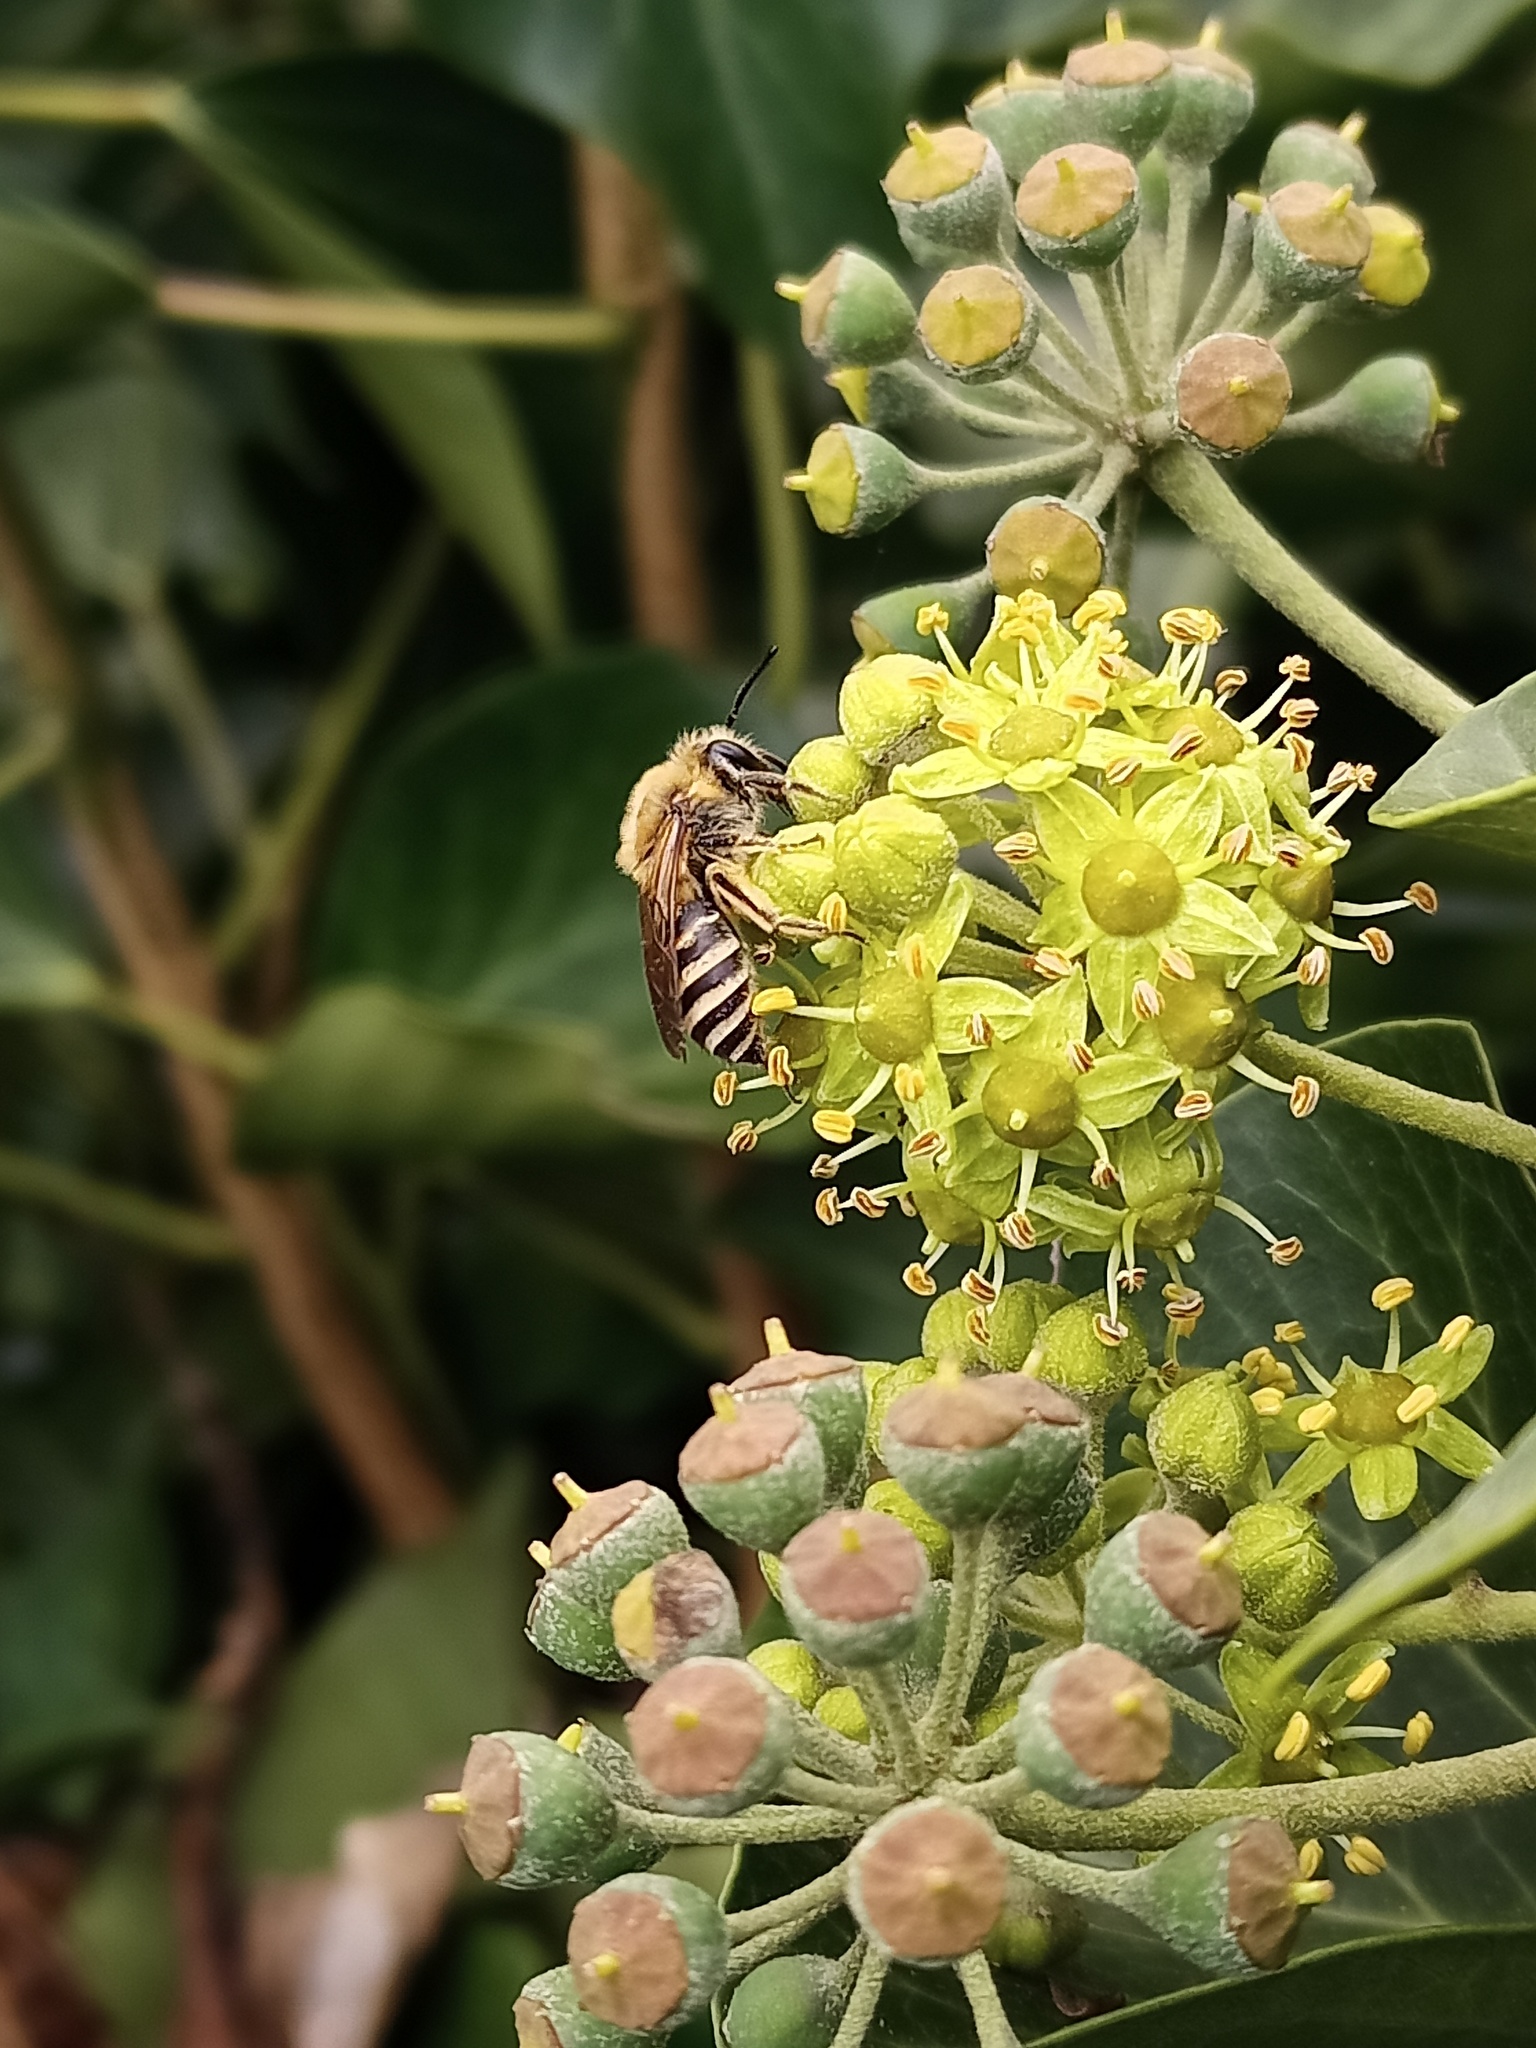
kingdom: Animalia
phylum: Arthropoda
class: Insecta
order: Hymenoptera
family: Colletidae
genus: Colletes
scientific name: Colletes hederae
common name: Ivy bee
